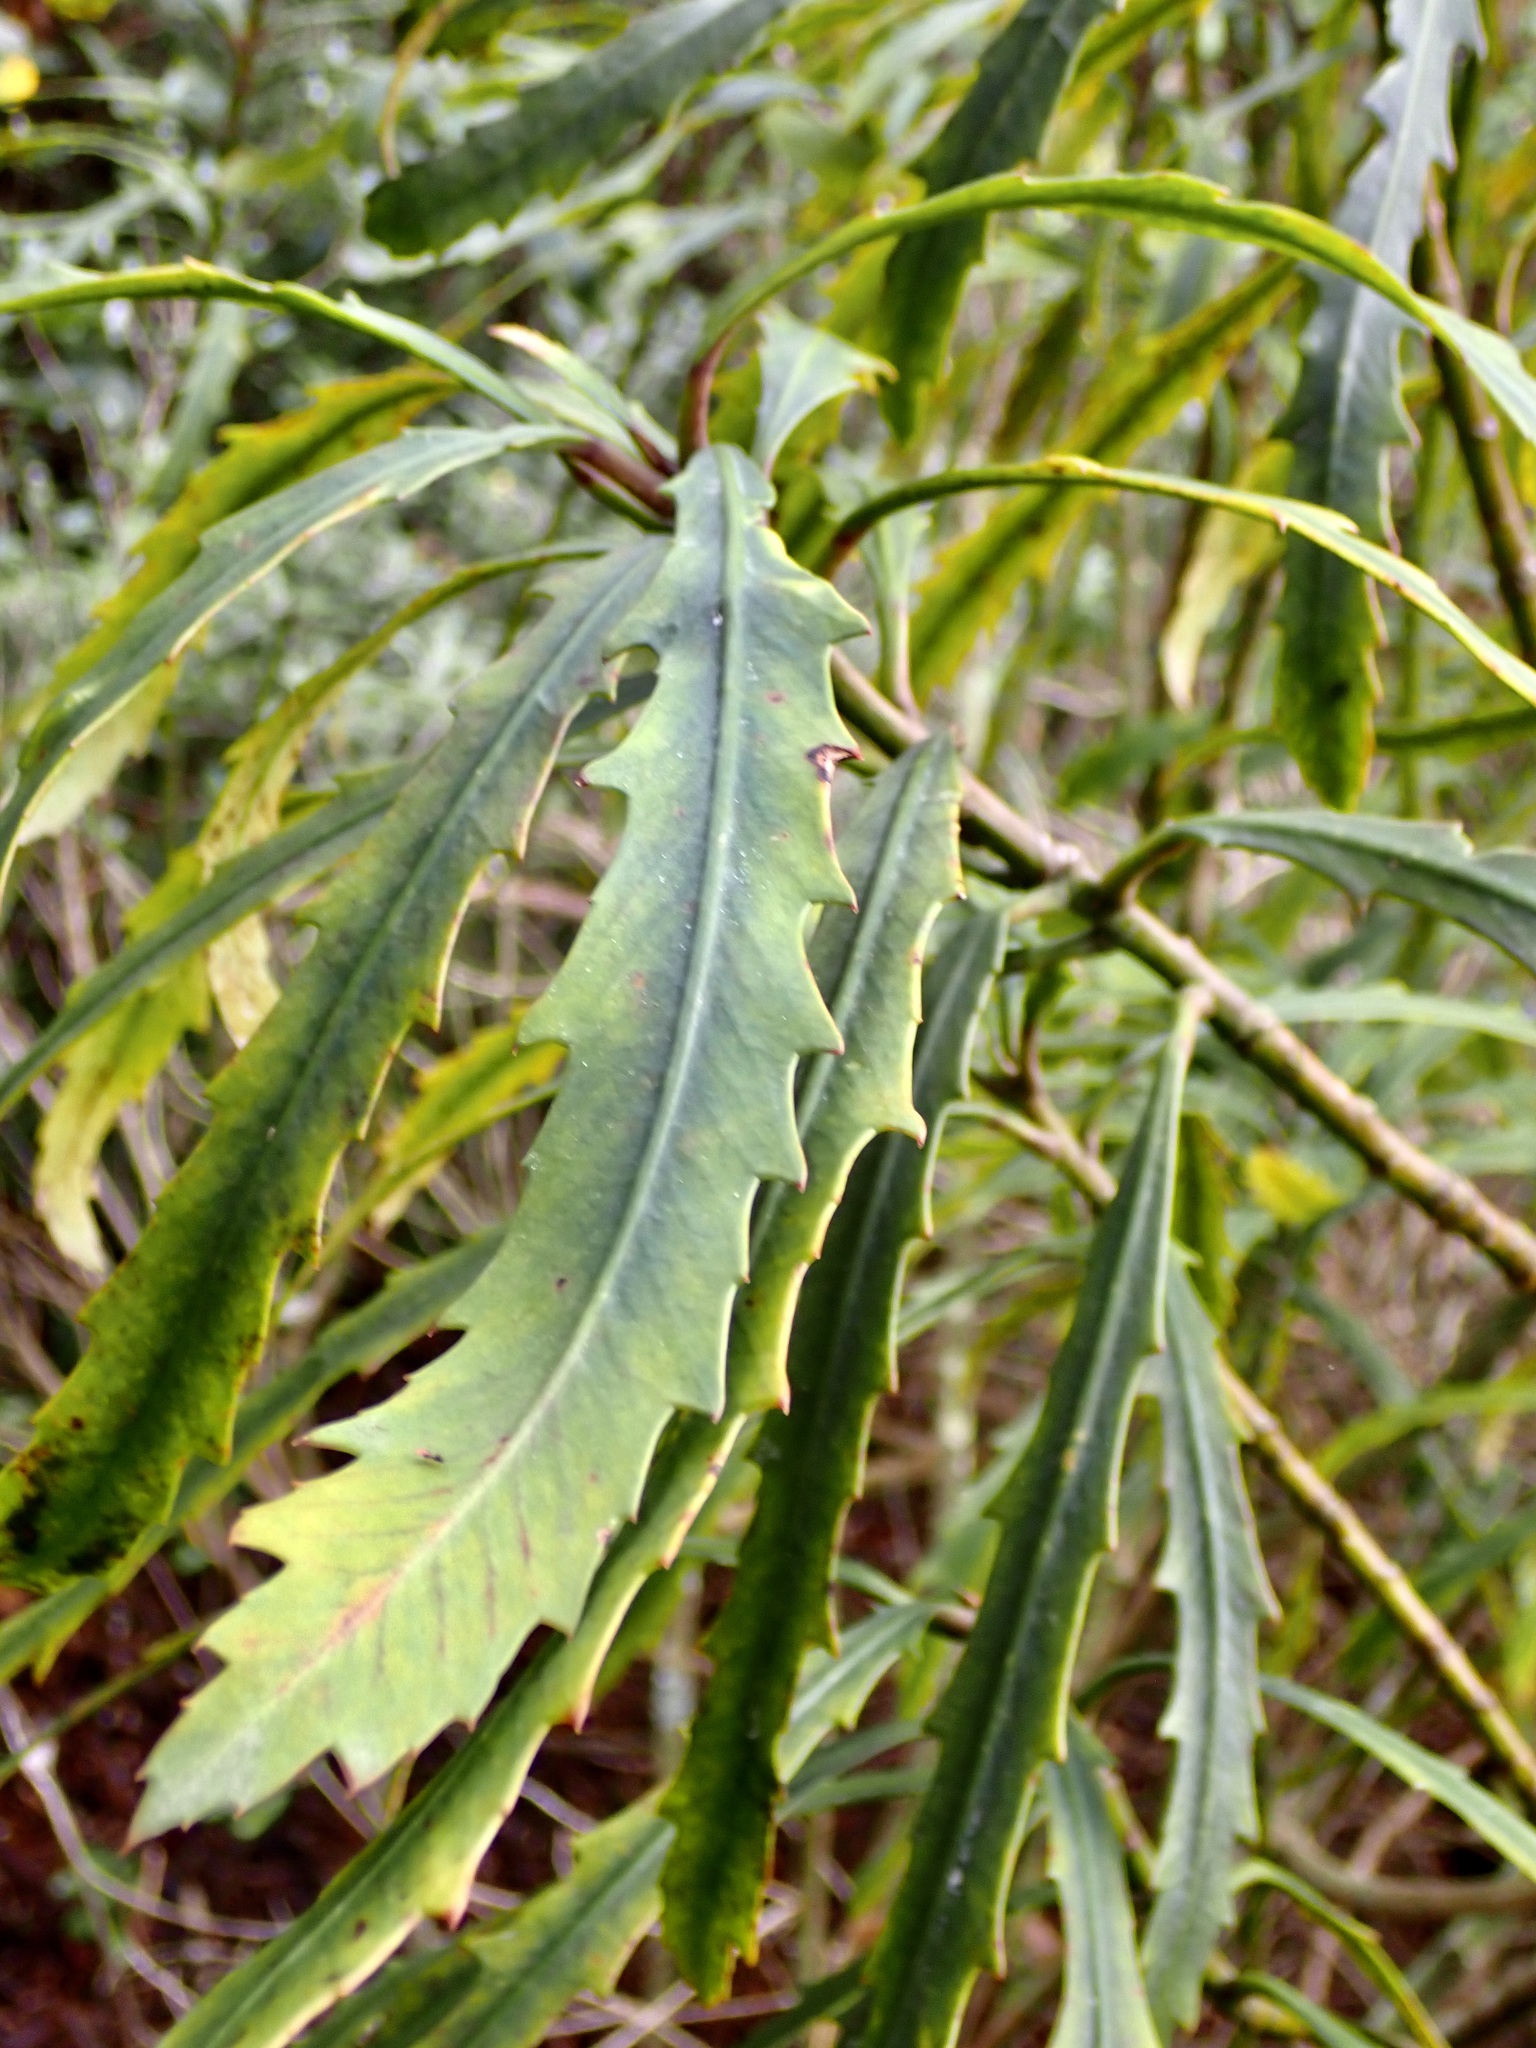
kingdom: Plantae
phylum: Tracheophyta
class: Magnoliopsida
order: Apiales
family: Araliaceae
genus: Pseudopanax
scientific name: Pseudopanax
